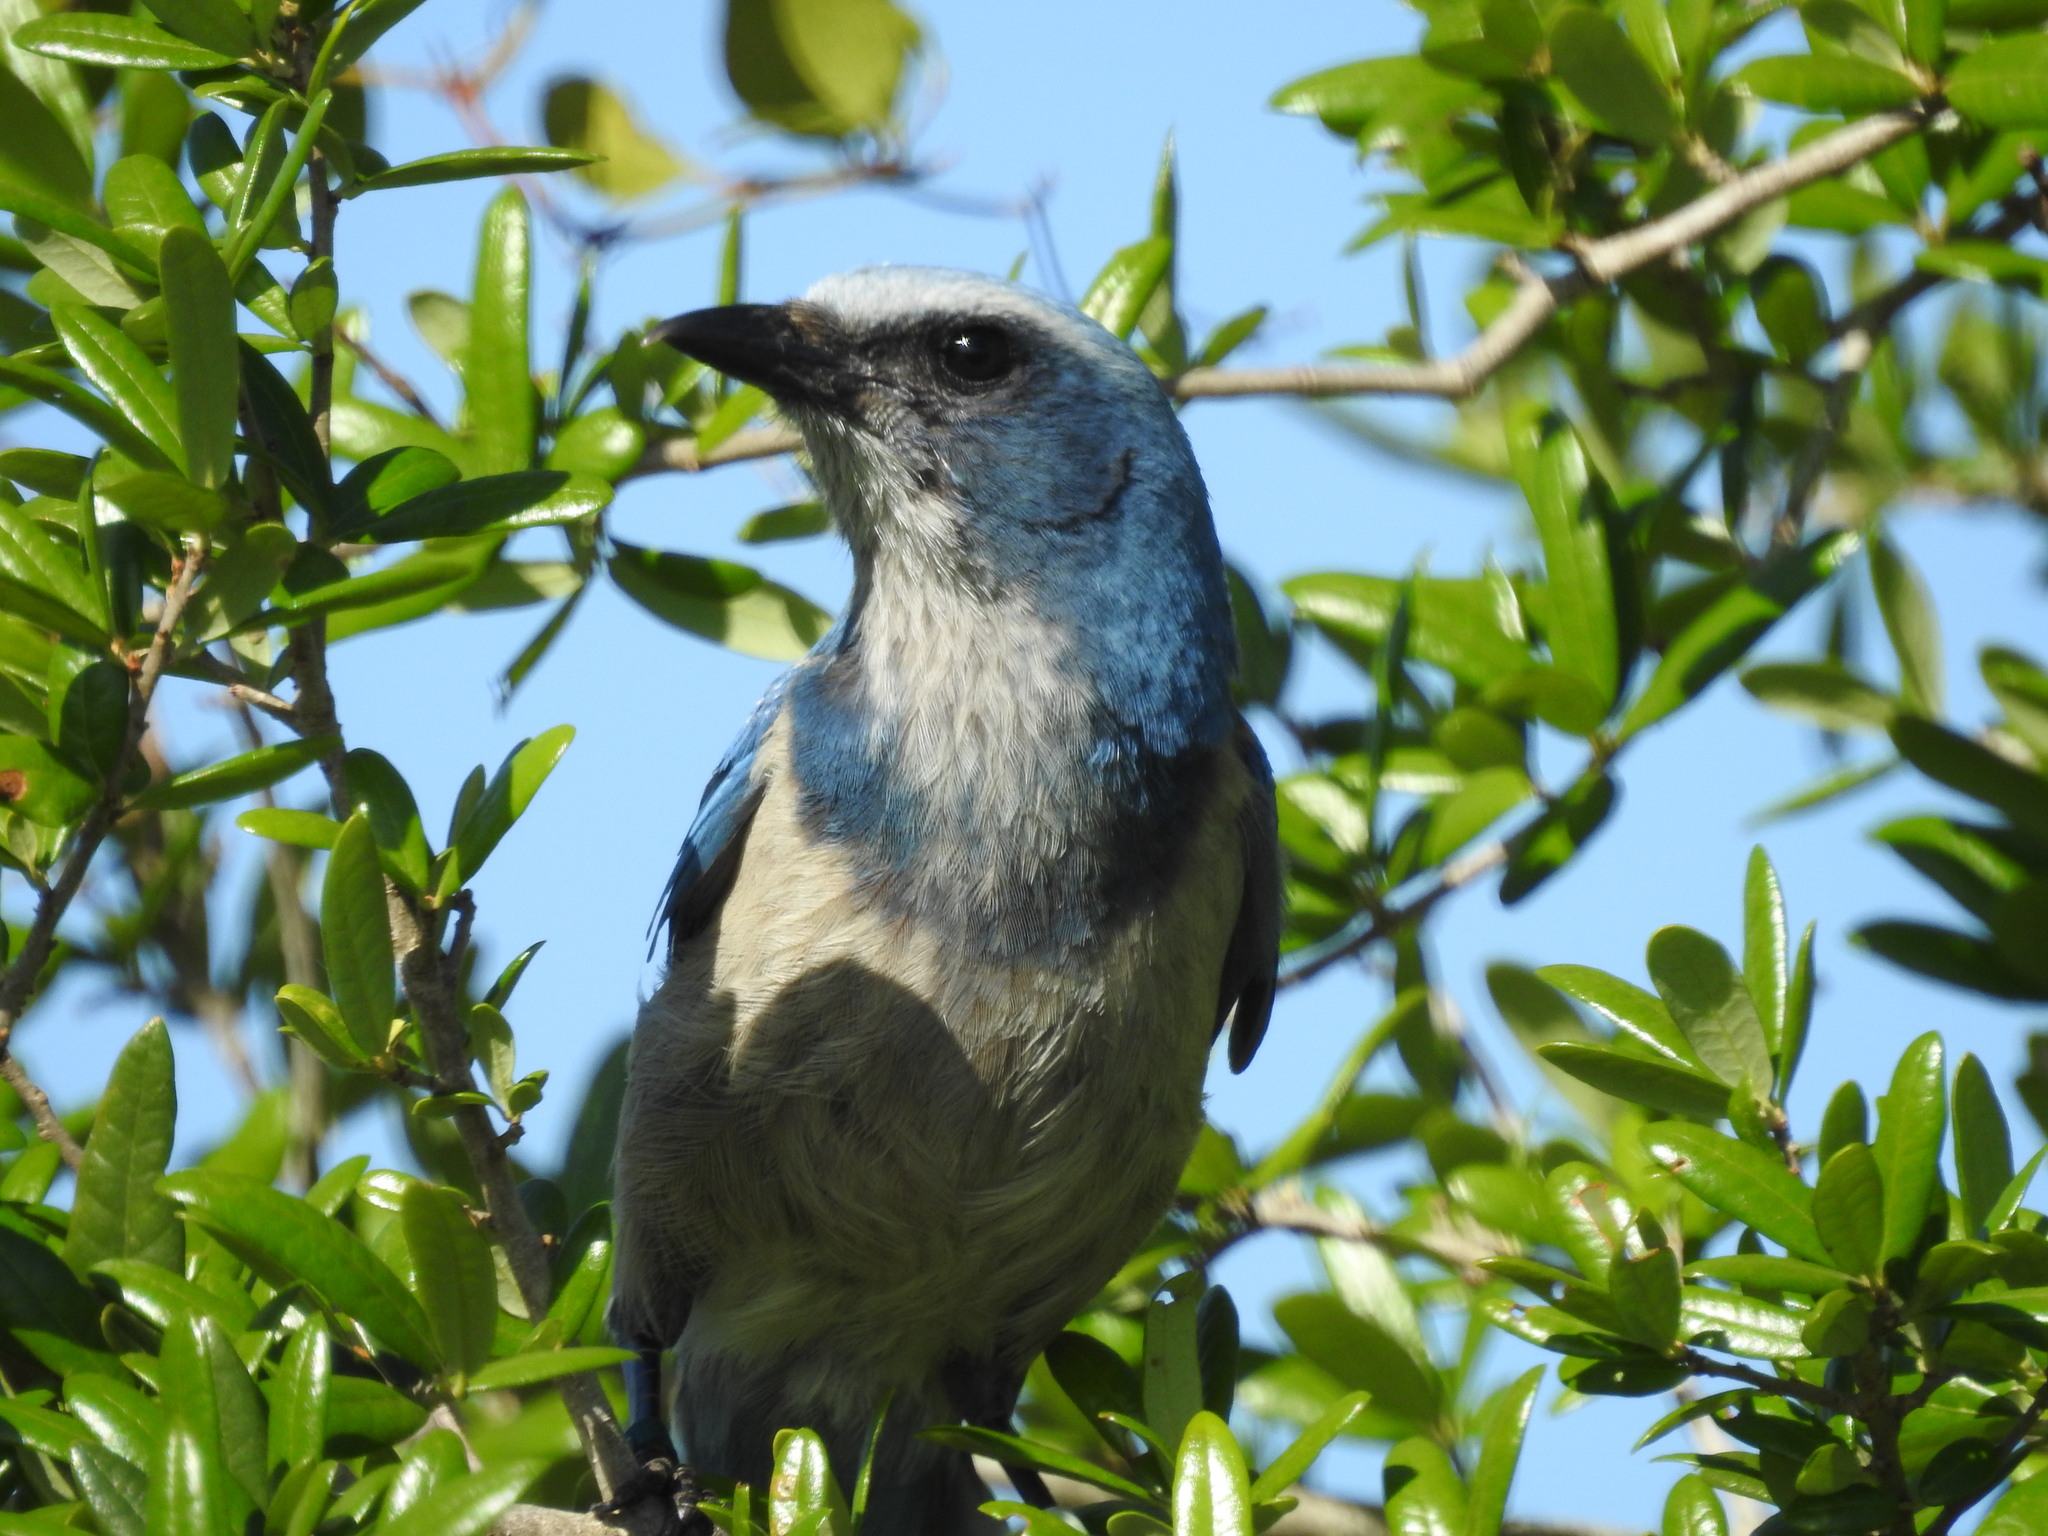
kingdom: Animalia
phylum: Chordata
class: Aves
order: Passeriformes
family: Corvidae
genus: Aphelocoma
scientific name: Aphelocoma coerulescens
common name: Florida scrub jay
